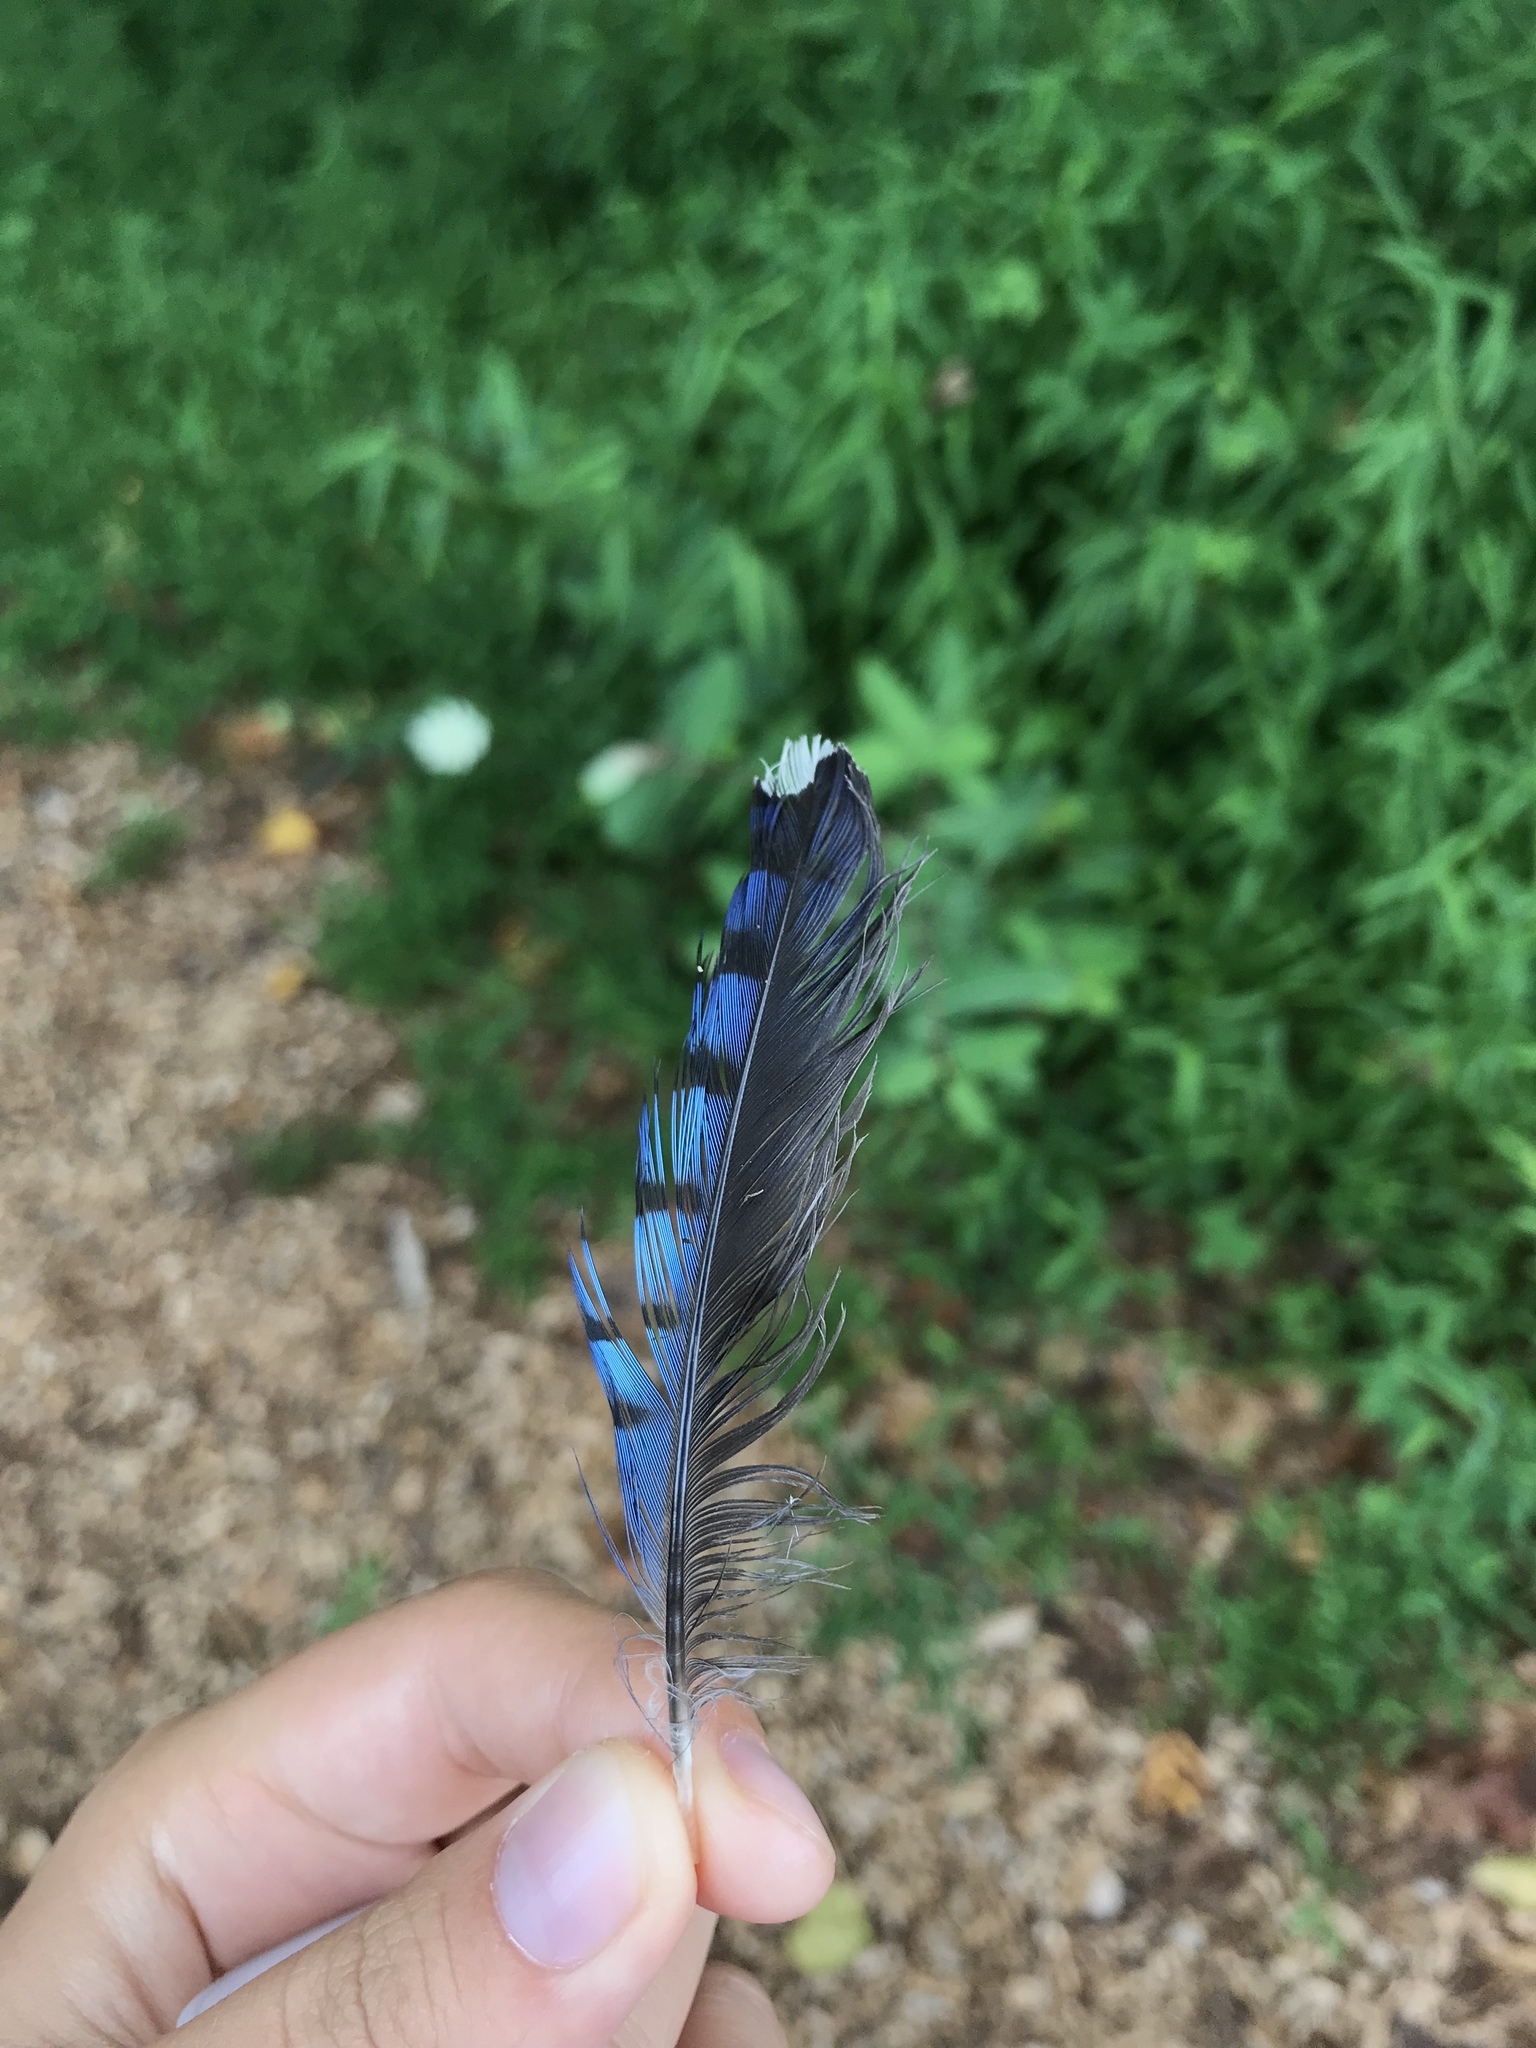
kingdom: Animalia
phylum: Chordata
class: Aves
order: Passeriformes
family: Corvidae
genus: Cyanocitta
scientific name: Cyanocitta cristata
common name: Blue jay
